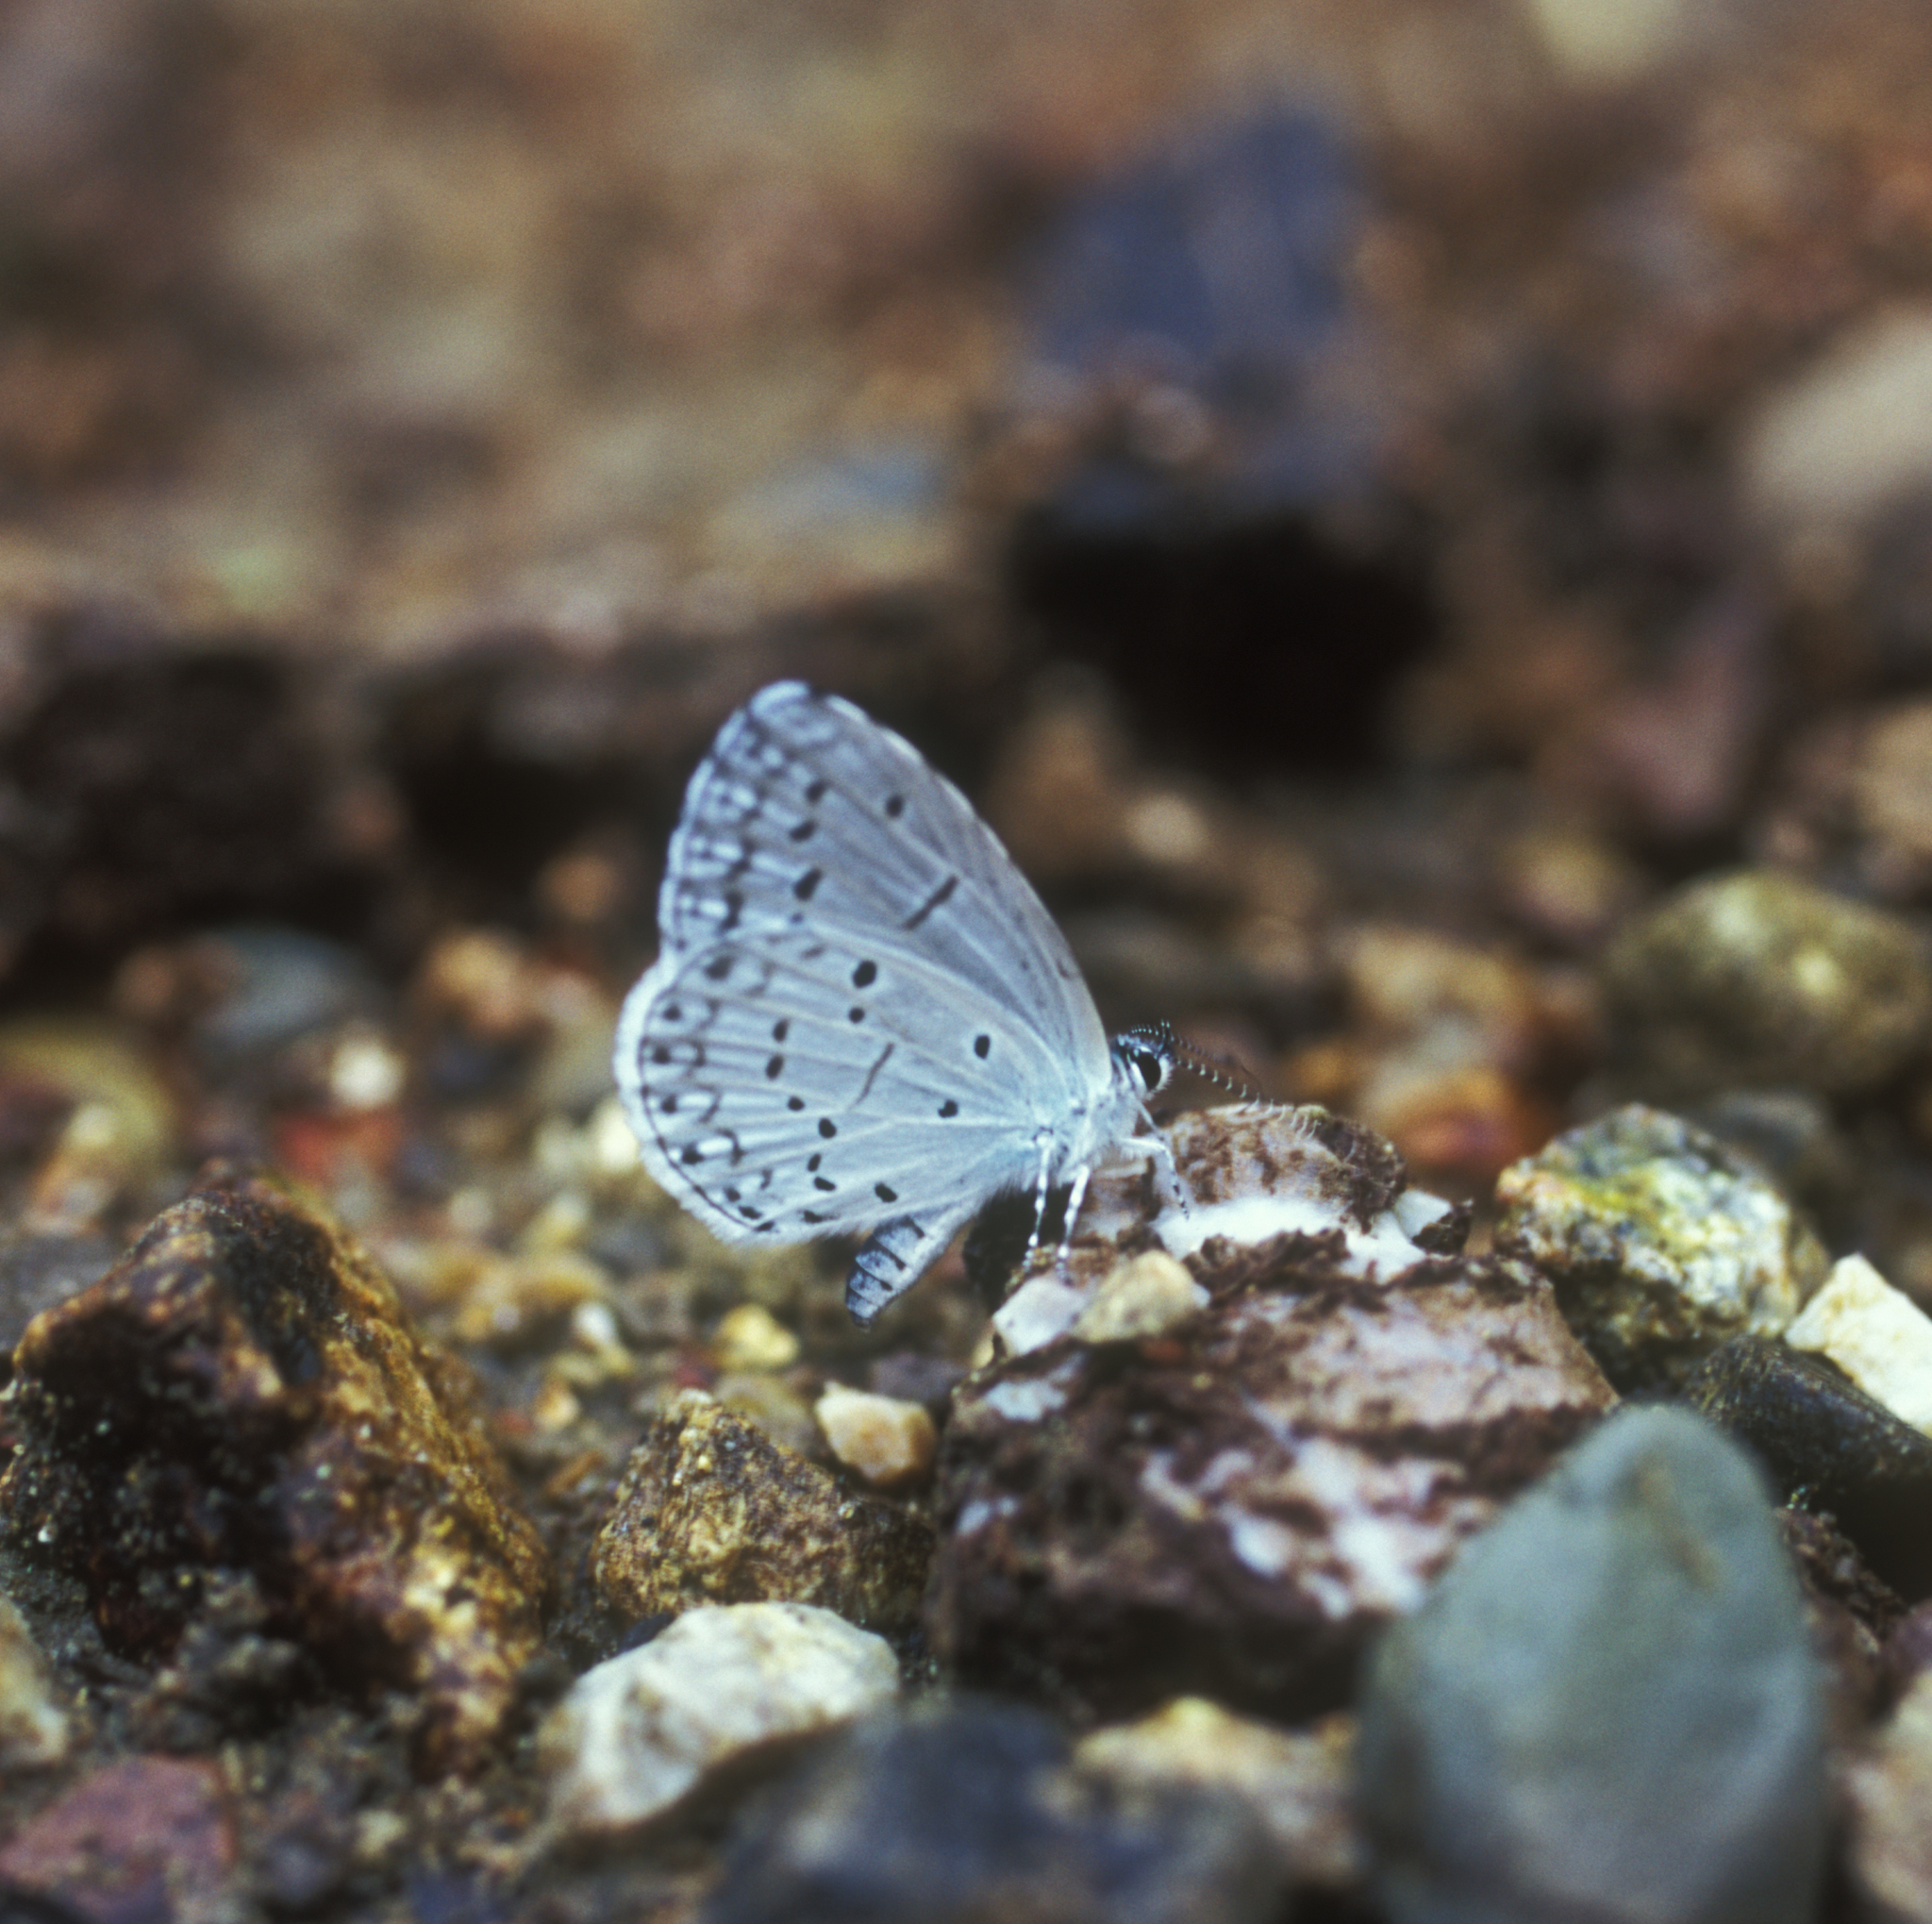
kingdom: Animalia
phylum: Arthropoda
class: Insecta
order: Lepidoptera
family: Lycaenidae
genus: Celastrina
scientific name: Celastrina argiolus
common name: Holly blue
